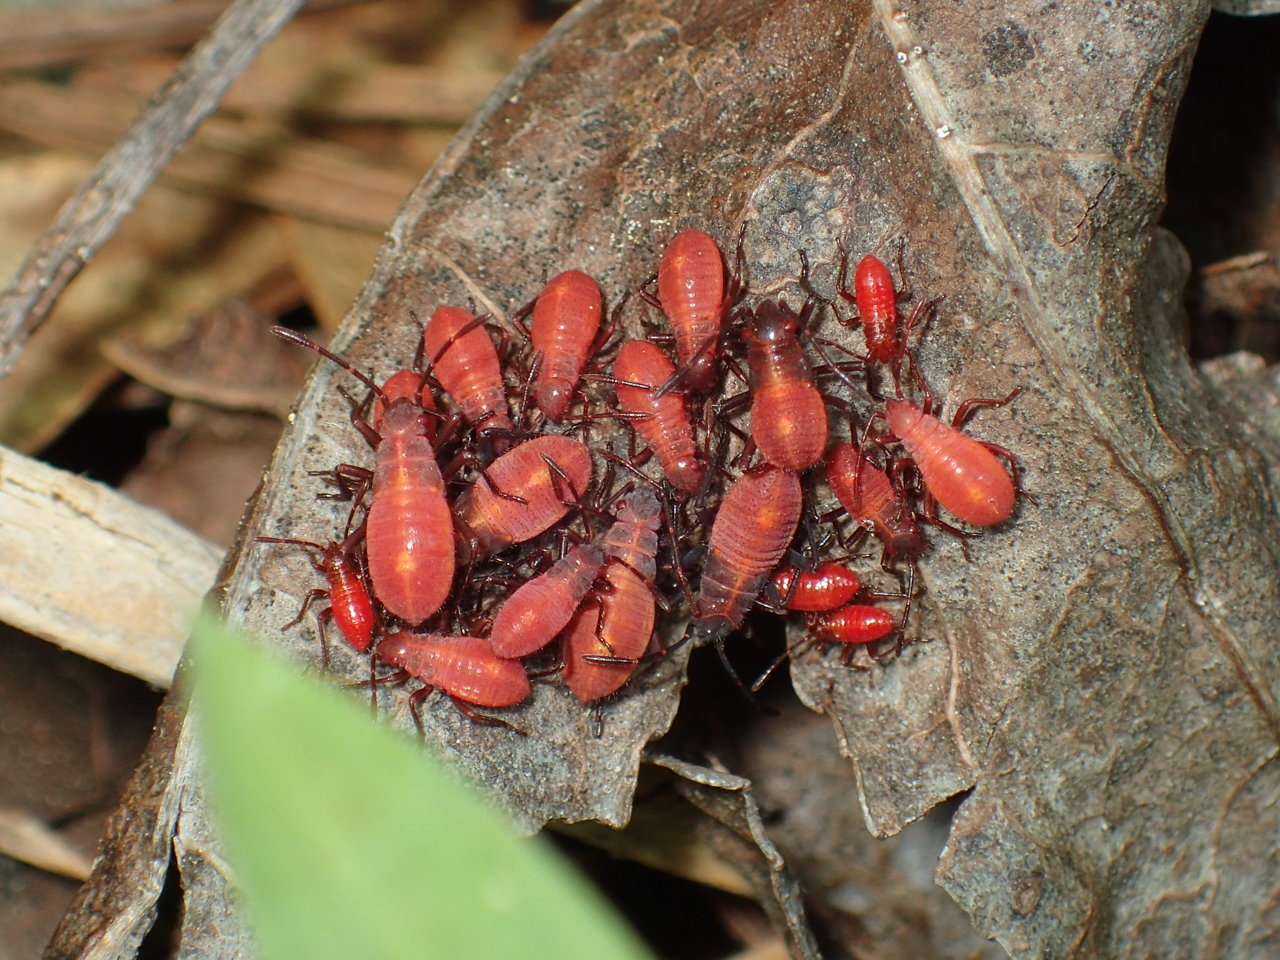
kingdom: Animalia
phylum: Arthropoda
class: Insecta
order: Hemiptera
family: Rhopalidae
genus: Boisea
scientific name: Boisea trivittata
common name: Boxelder bug
